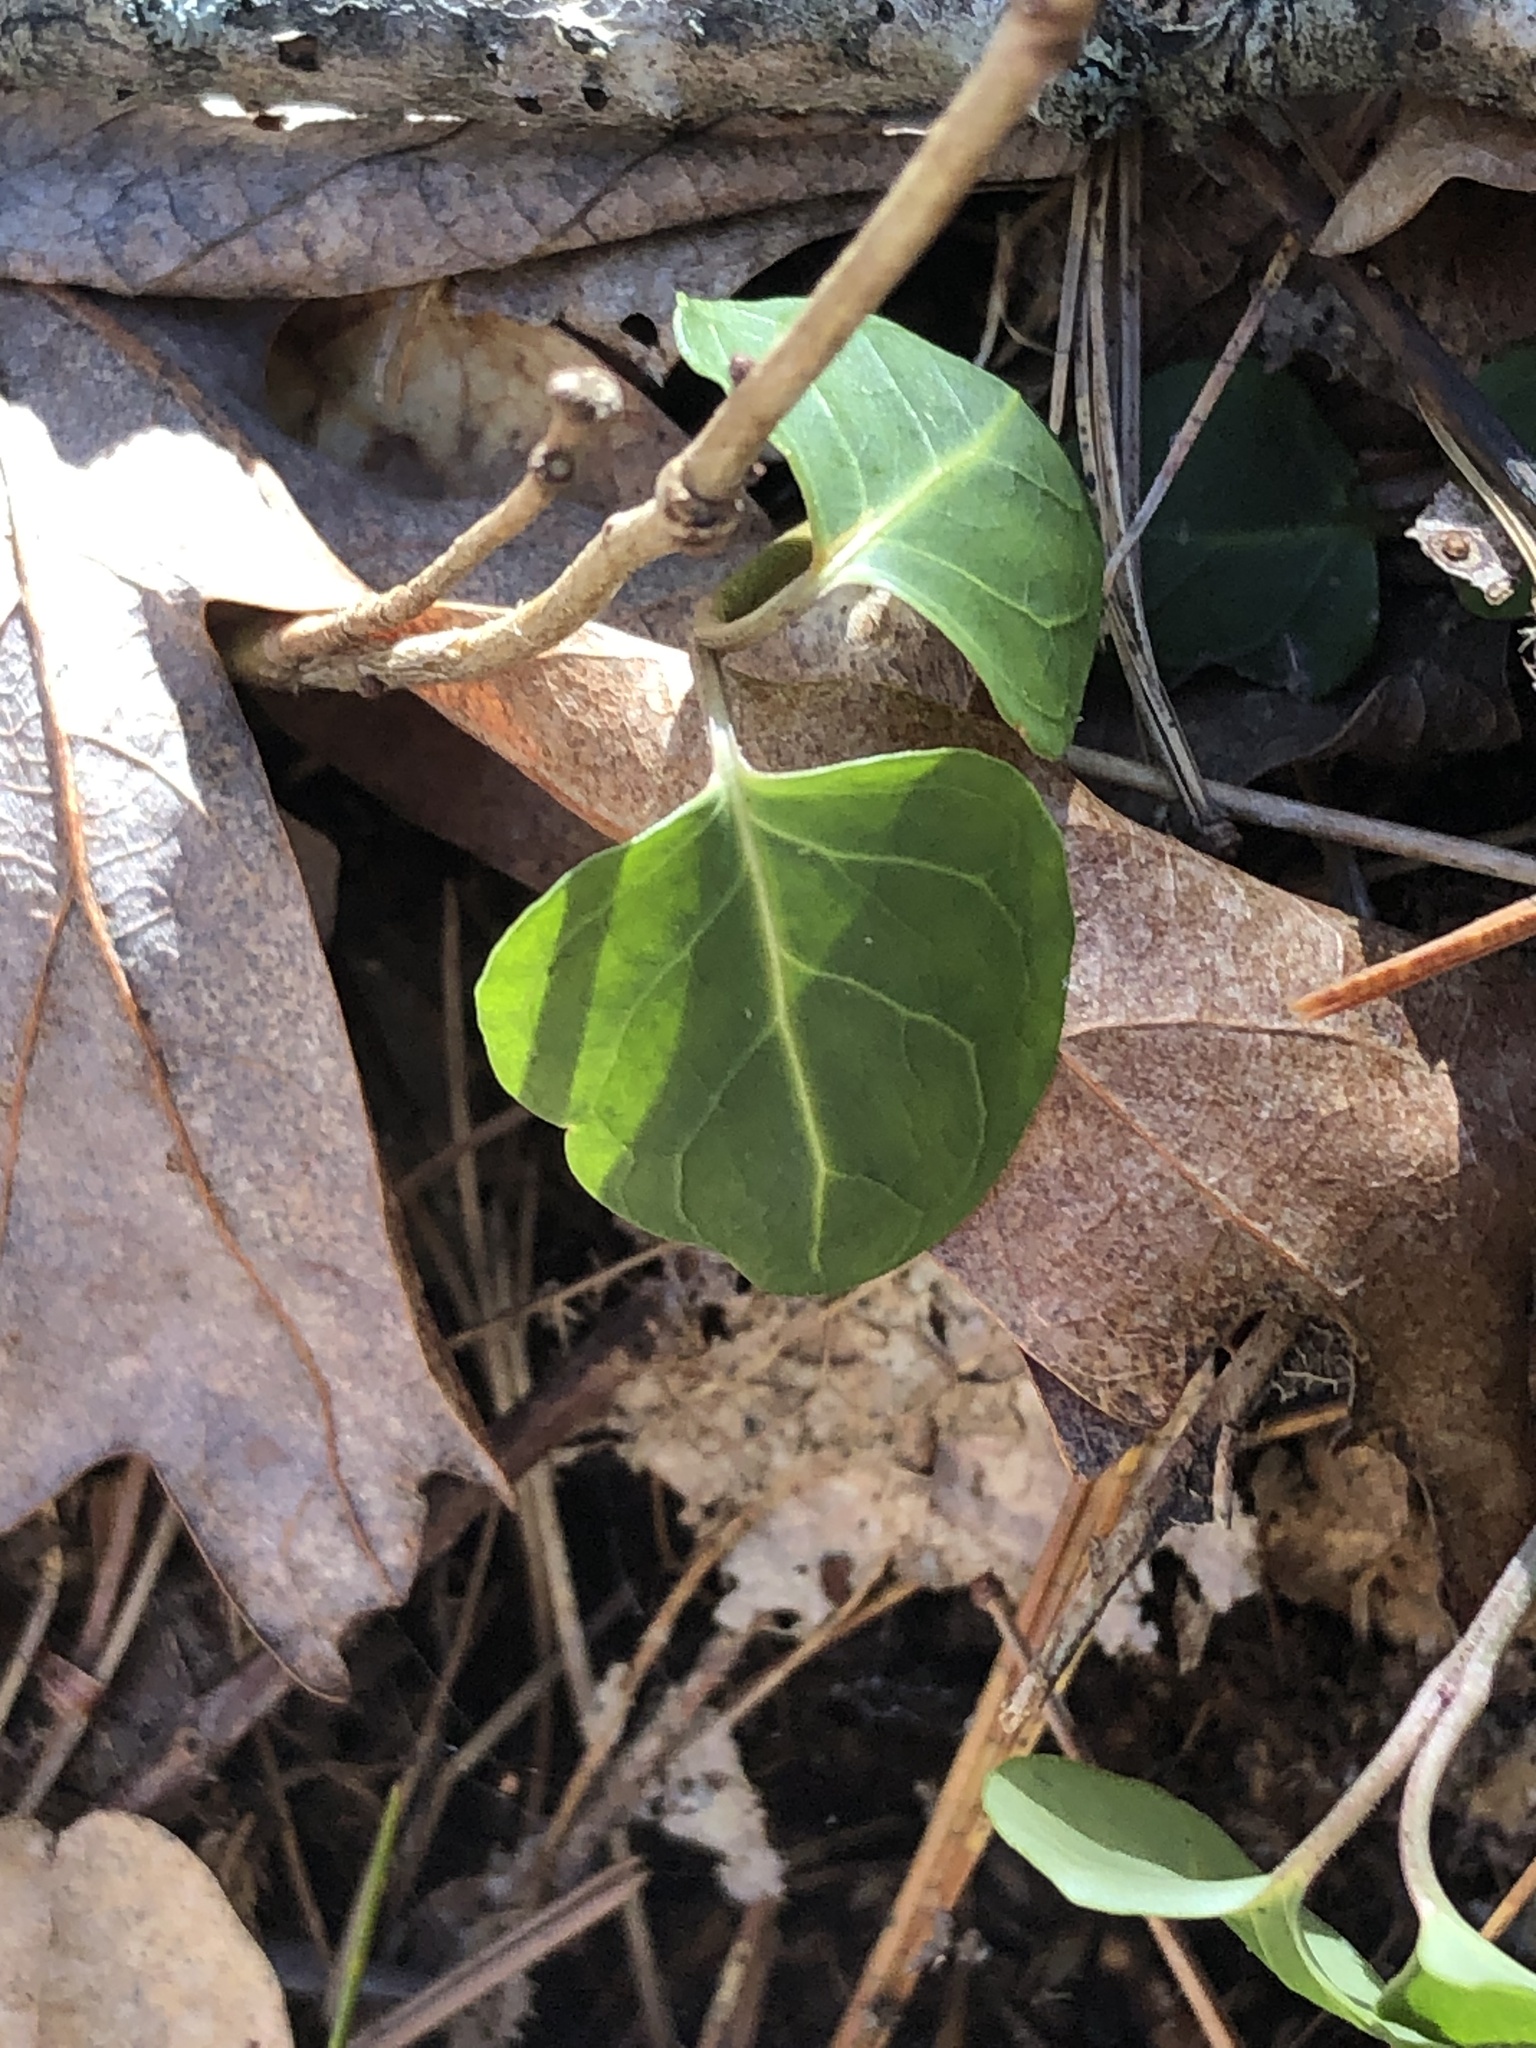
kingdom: Plantae
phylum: Tracheophyta
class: Magnoliopsida
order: Gentianales
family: Rubiaceae
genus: Mitchella
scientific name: Mitchella repens
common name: Partridge-berry
